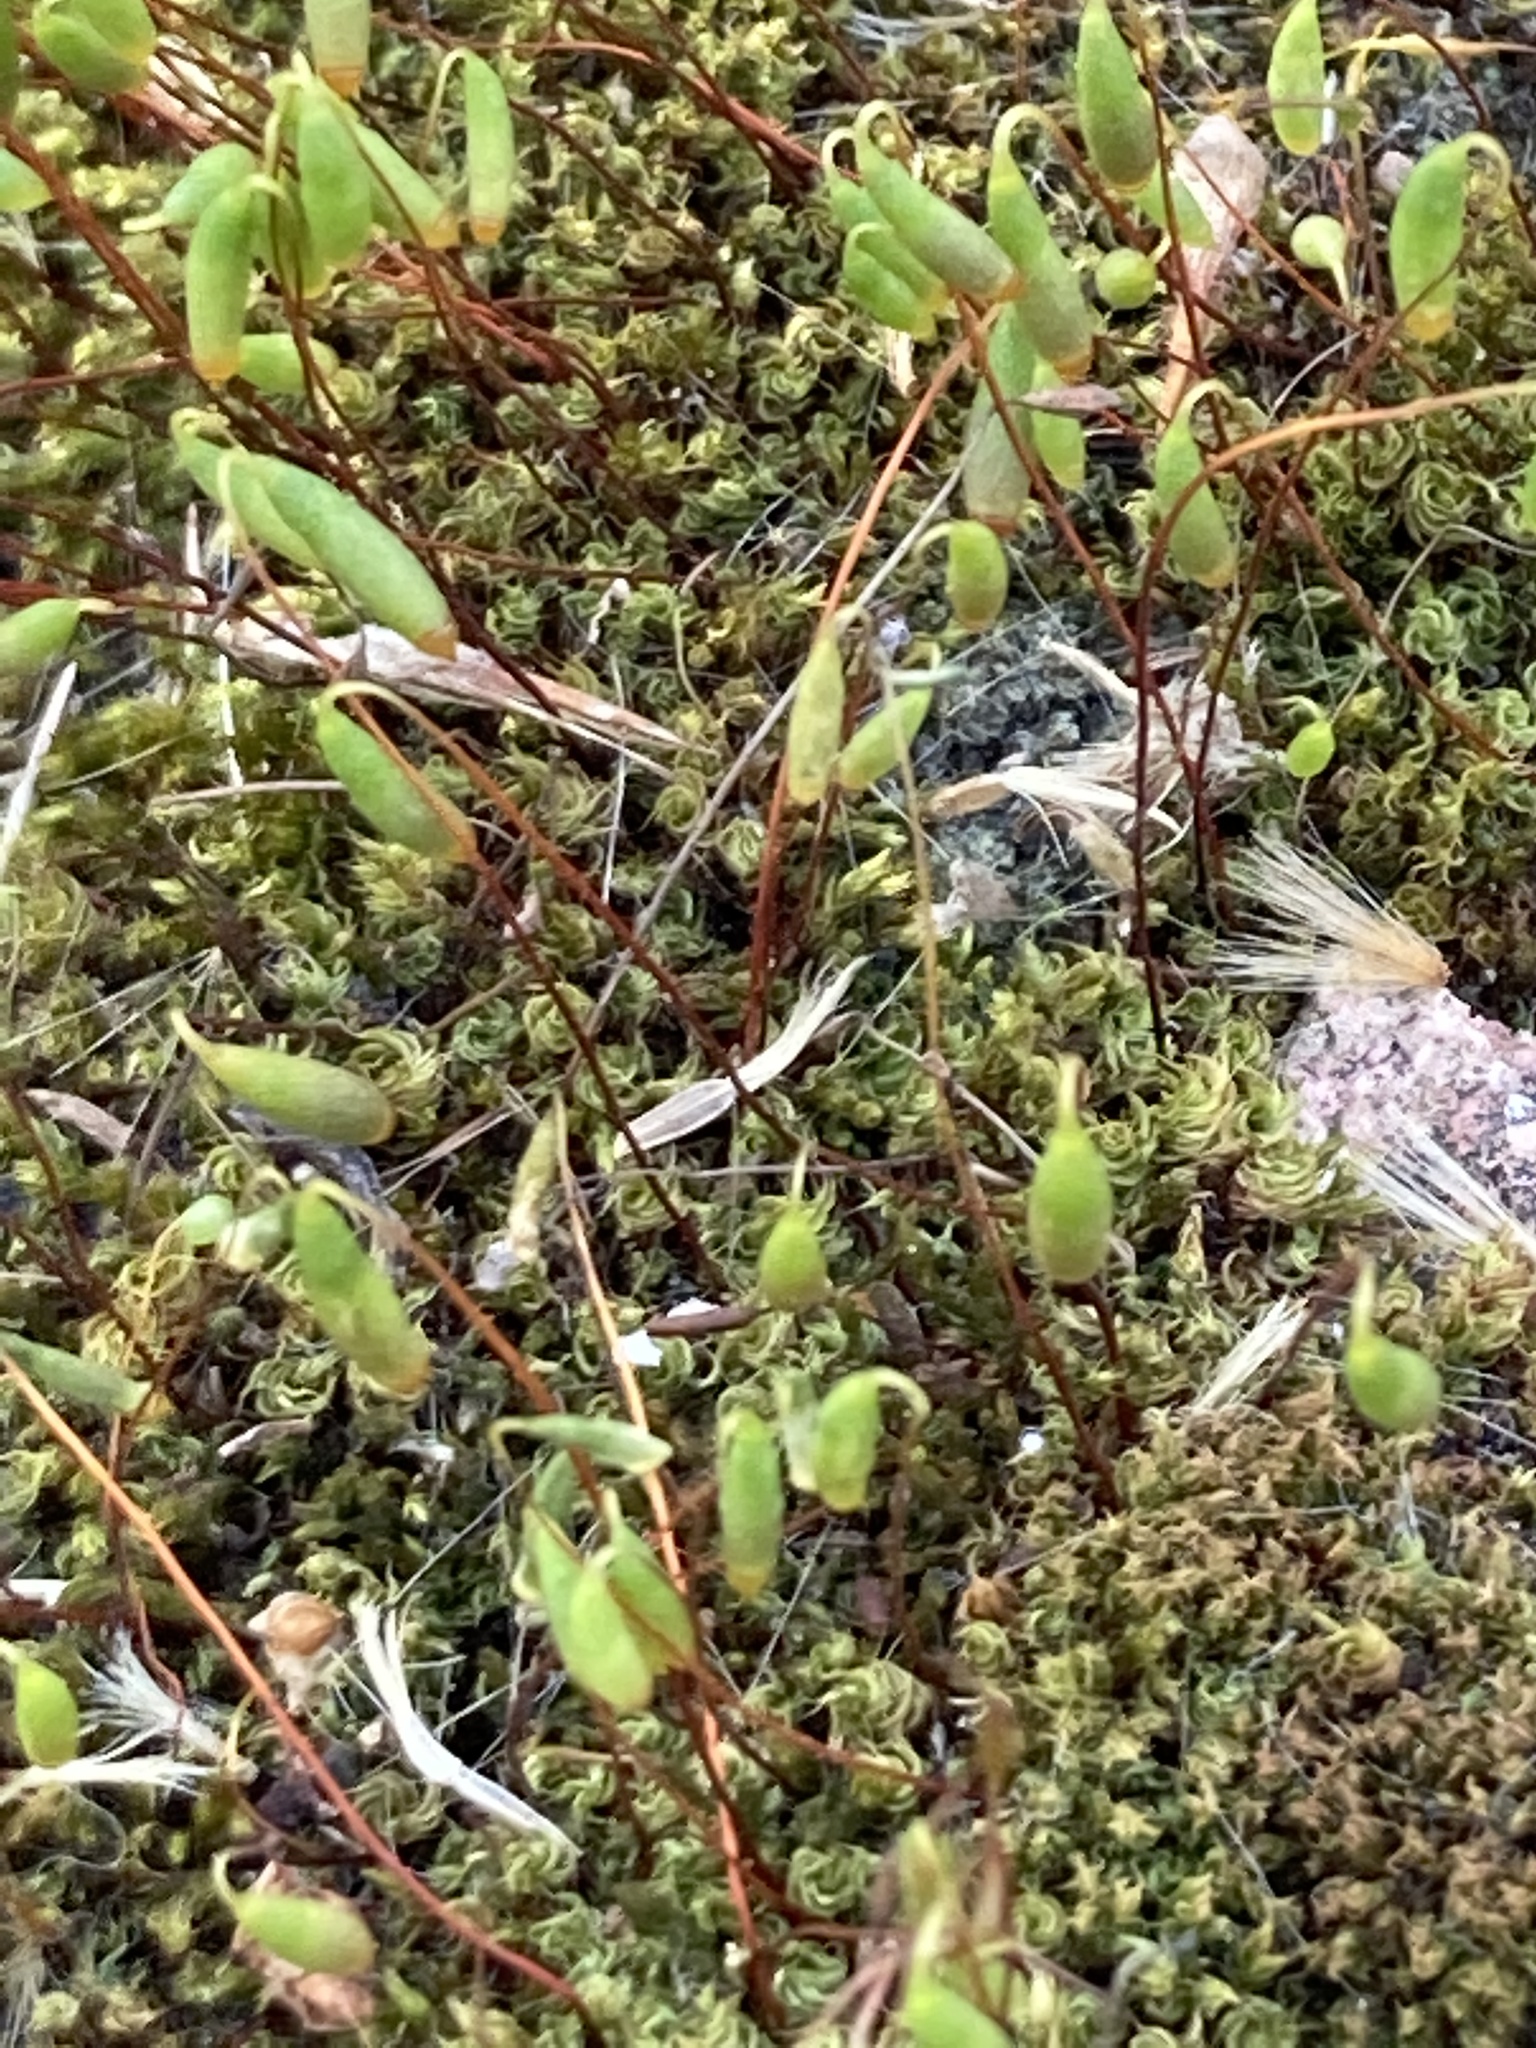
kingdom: Plantae
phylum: Bryophyta
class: Bryopsida
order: Bryales
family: Bryaceae
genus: Rosulabryum
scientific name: Rosulabryum capillare
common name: Capillary thread-moss
